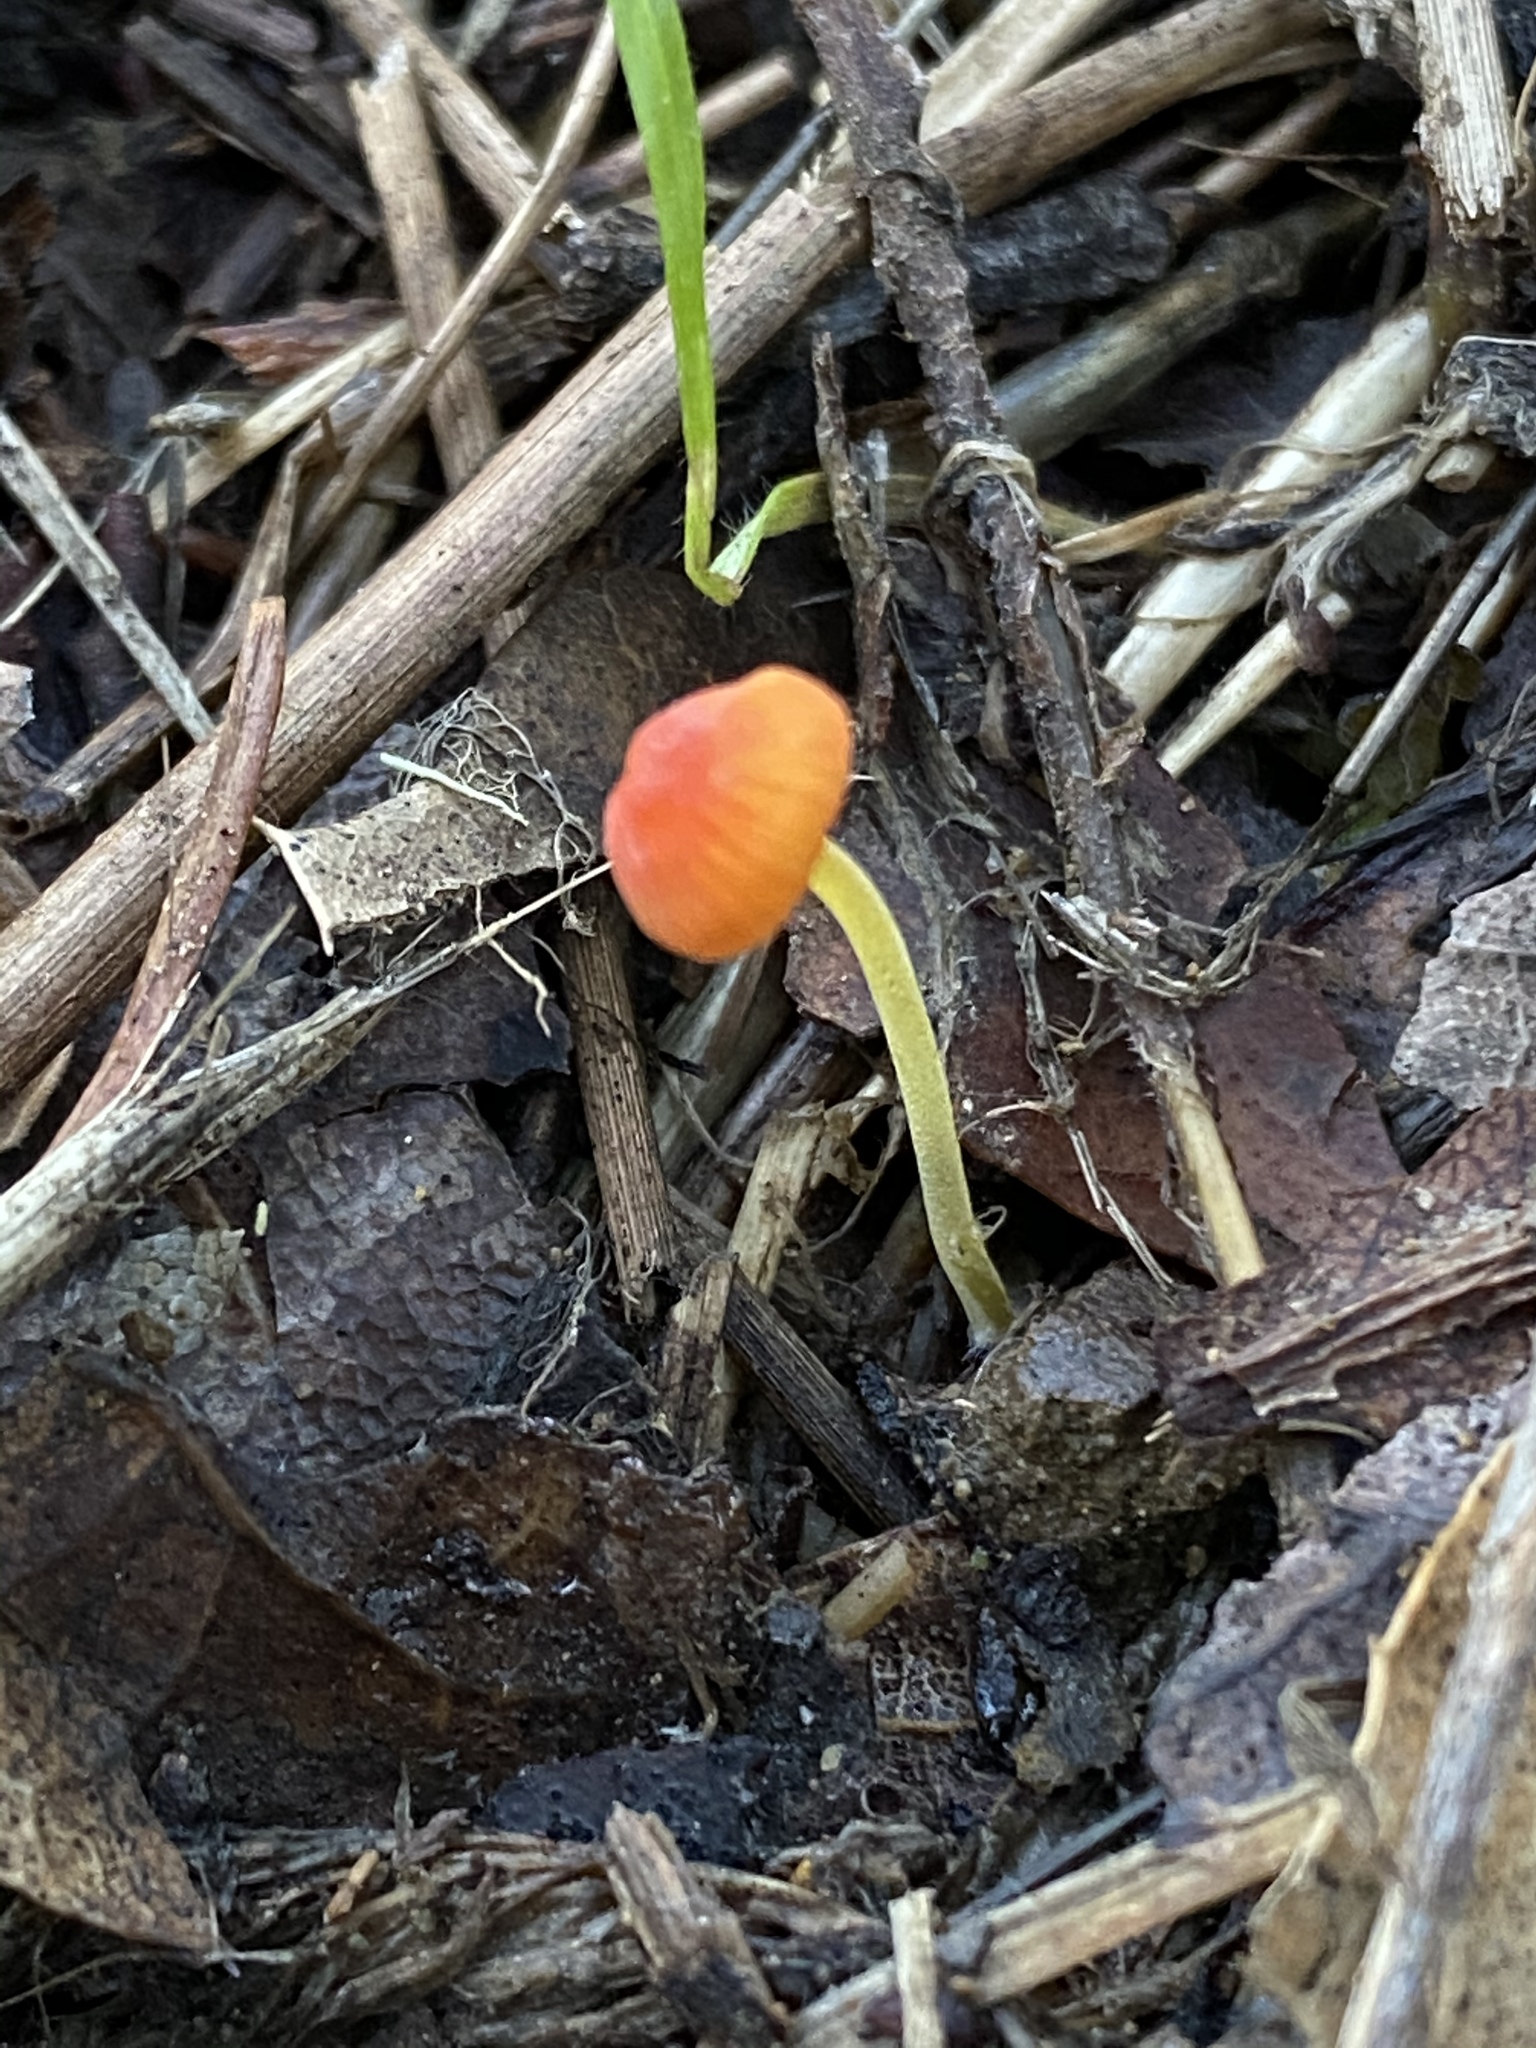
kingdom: Fungi
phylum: Basidiomycota
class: Agaricomycetes
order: Agaricales
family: Mycenaceae
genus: Mycena
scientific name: Mycena acicula
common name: Orange bonnet
